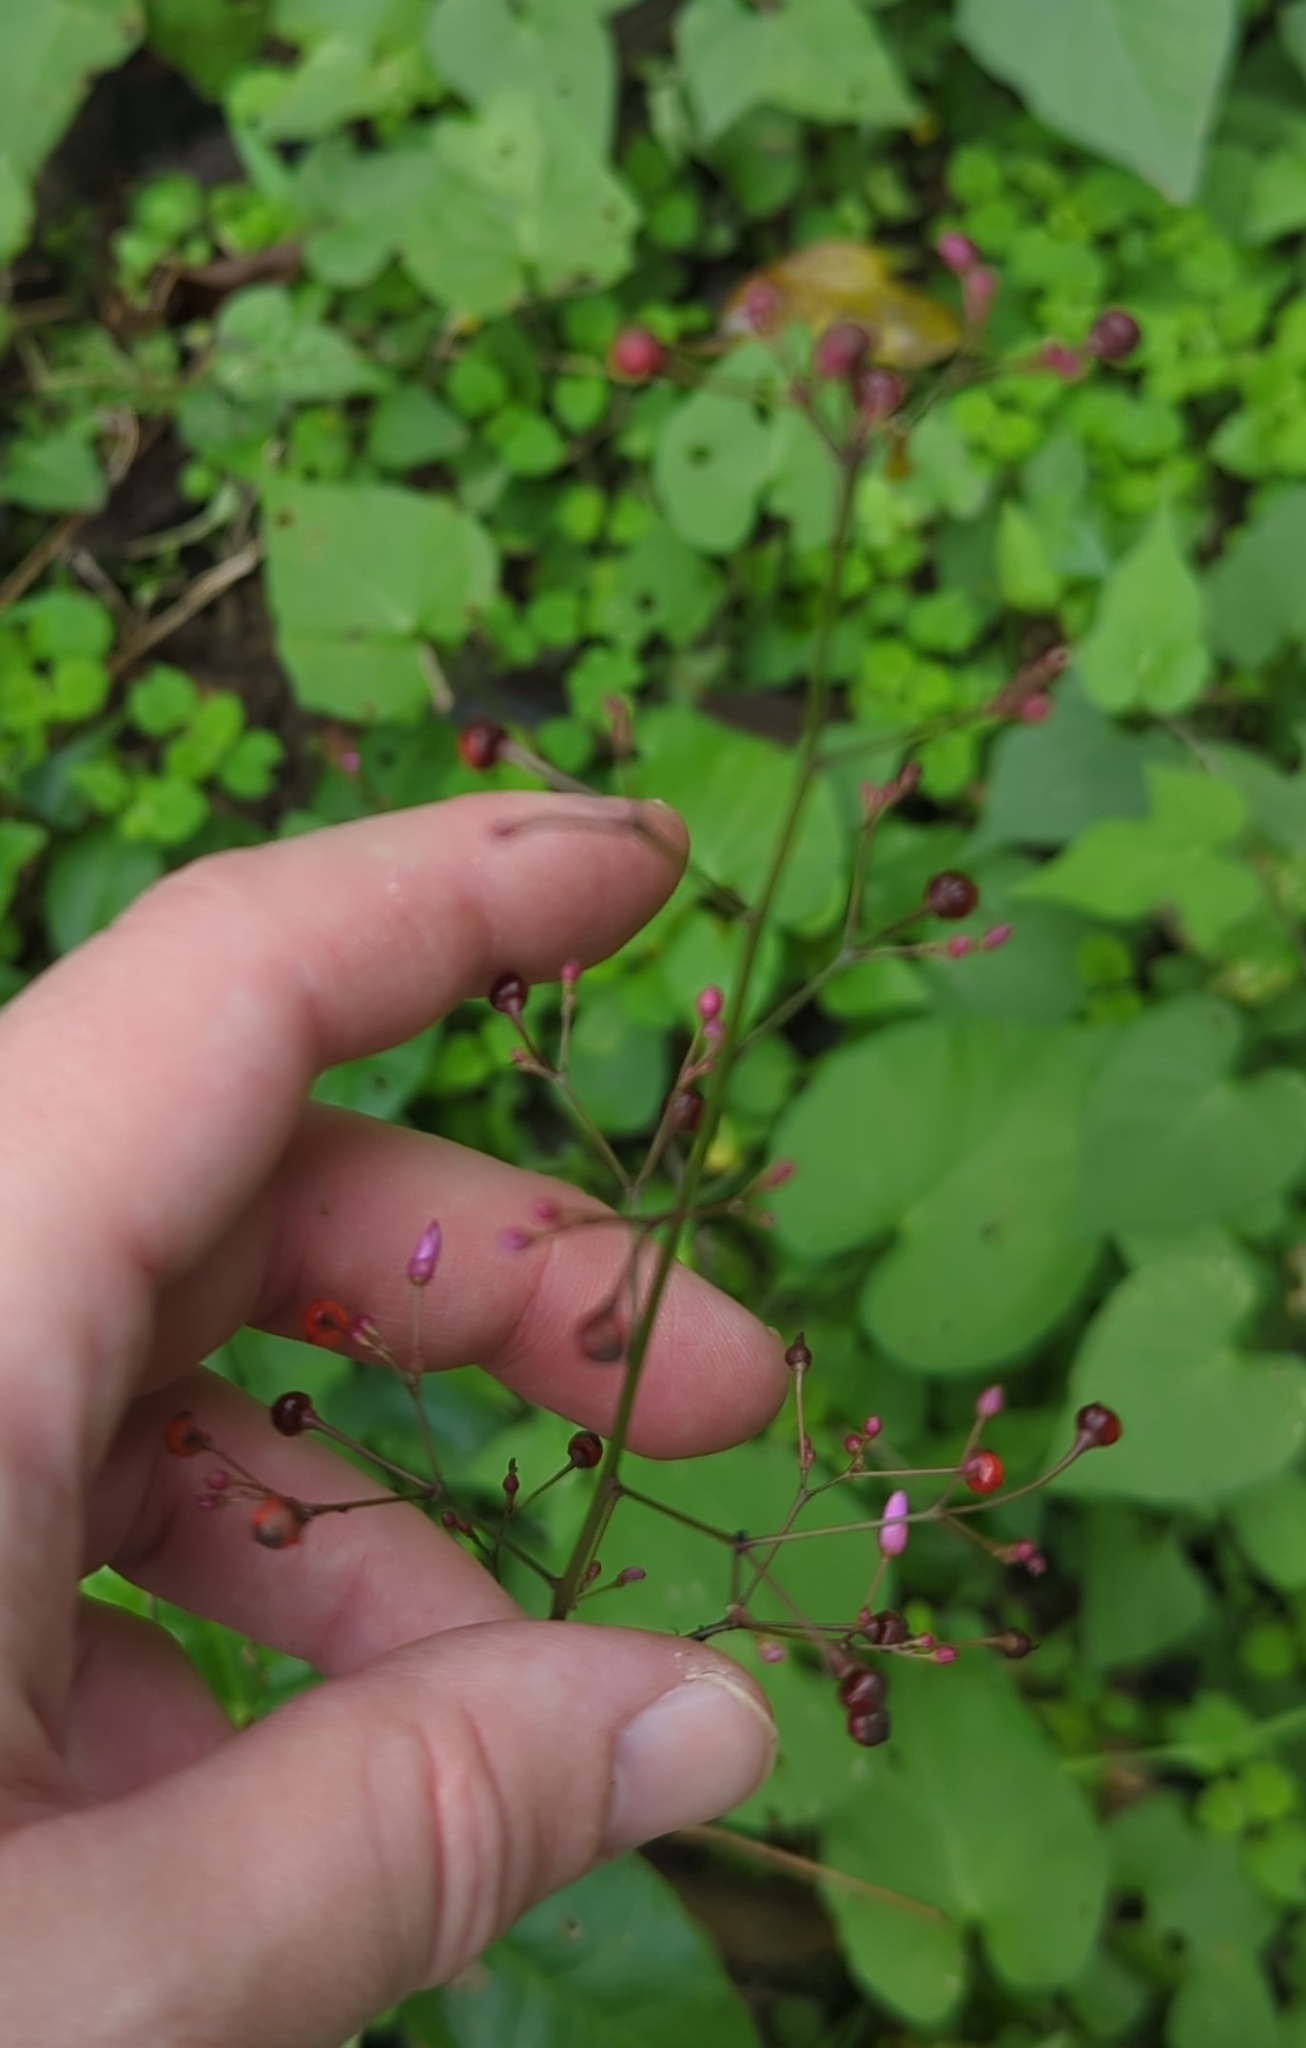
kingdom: Plantae
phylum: Tracheophyta
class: Magnoliopsida
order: Caryophyllales
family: Talinaceae
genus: Talinum
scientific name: Talinum paniculatum
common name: Jewels of opar
